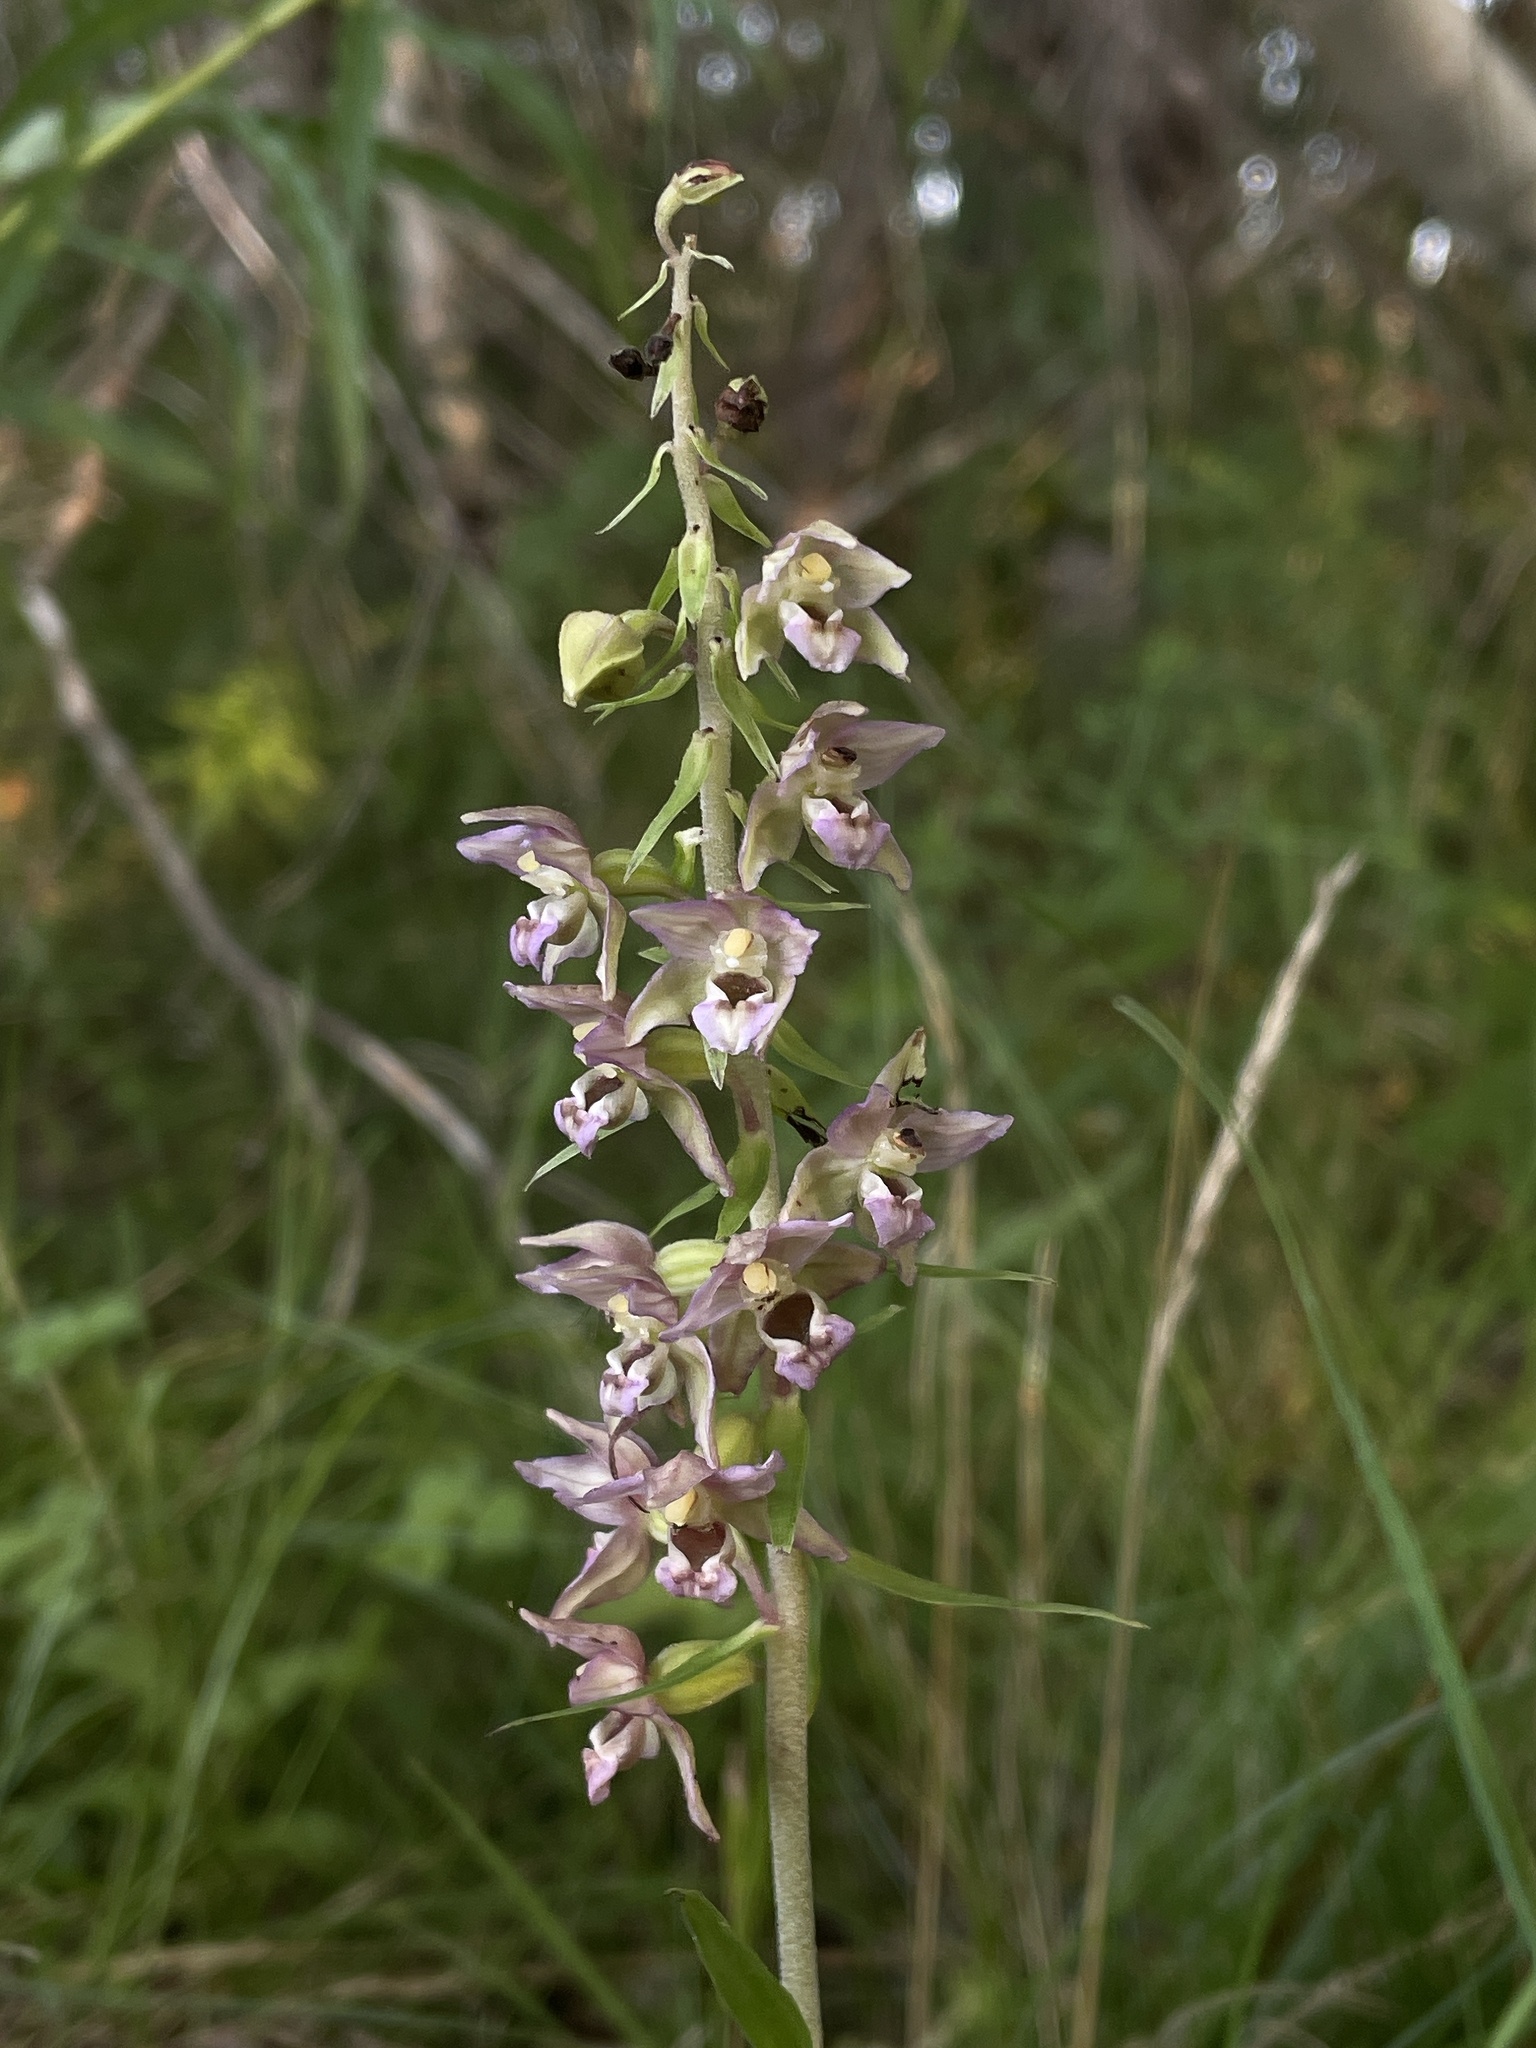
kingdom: Plantae
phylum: Tracheophyta
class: Liliopsida
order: Asparagales
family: Orchidaceae
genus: Epipactis
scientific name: Epipactis helleborine
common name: Broad-leaved helleborine
